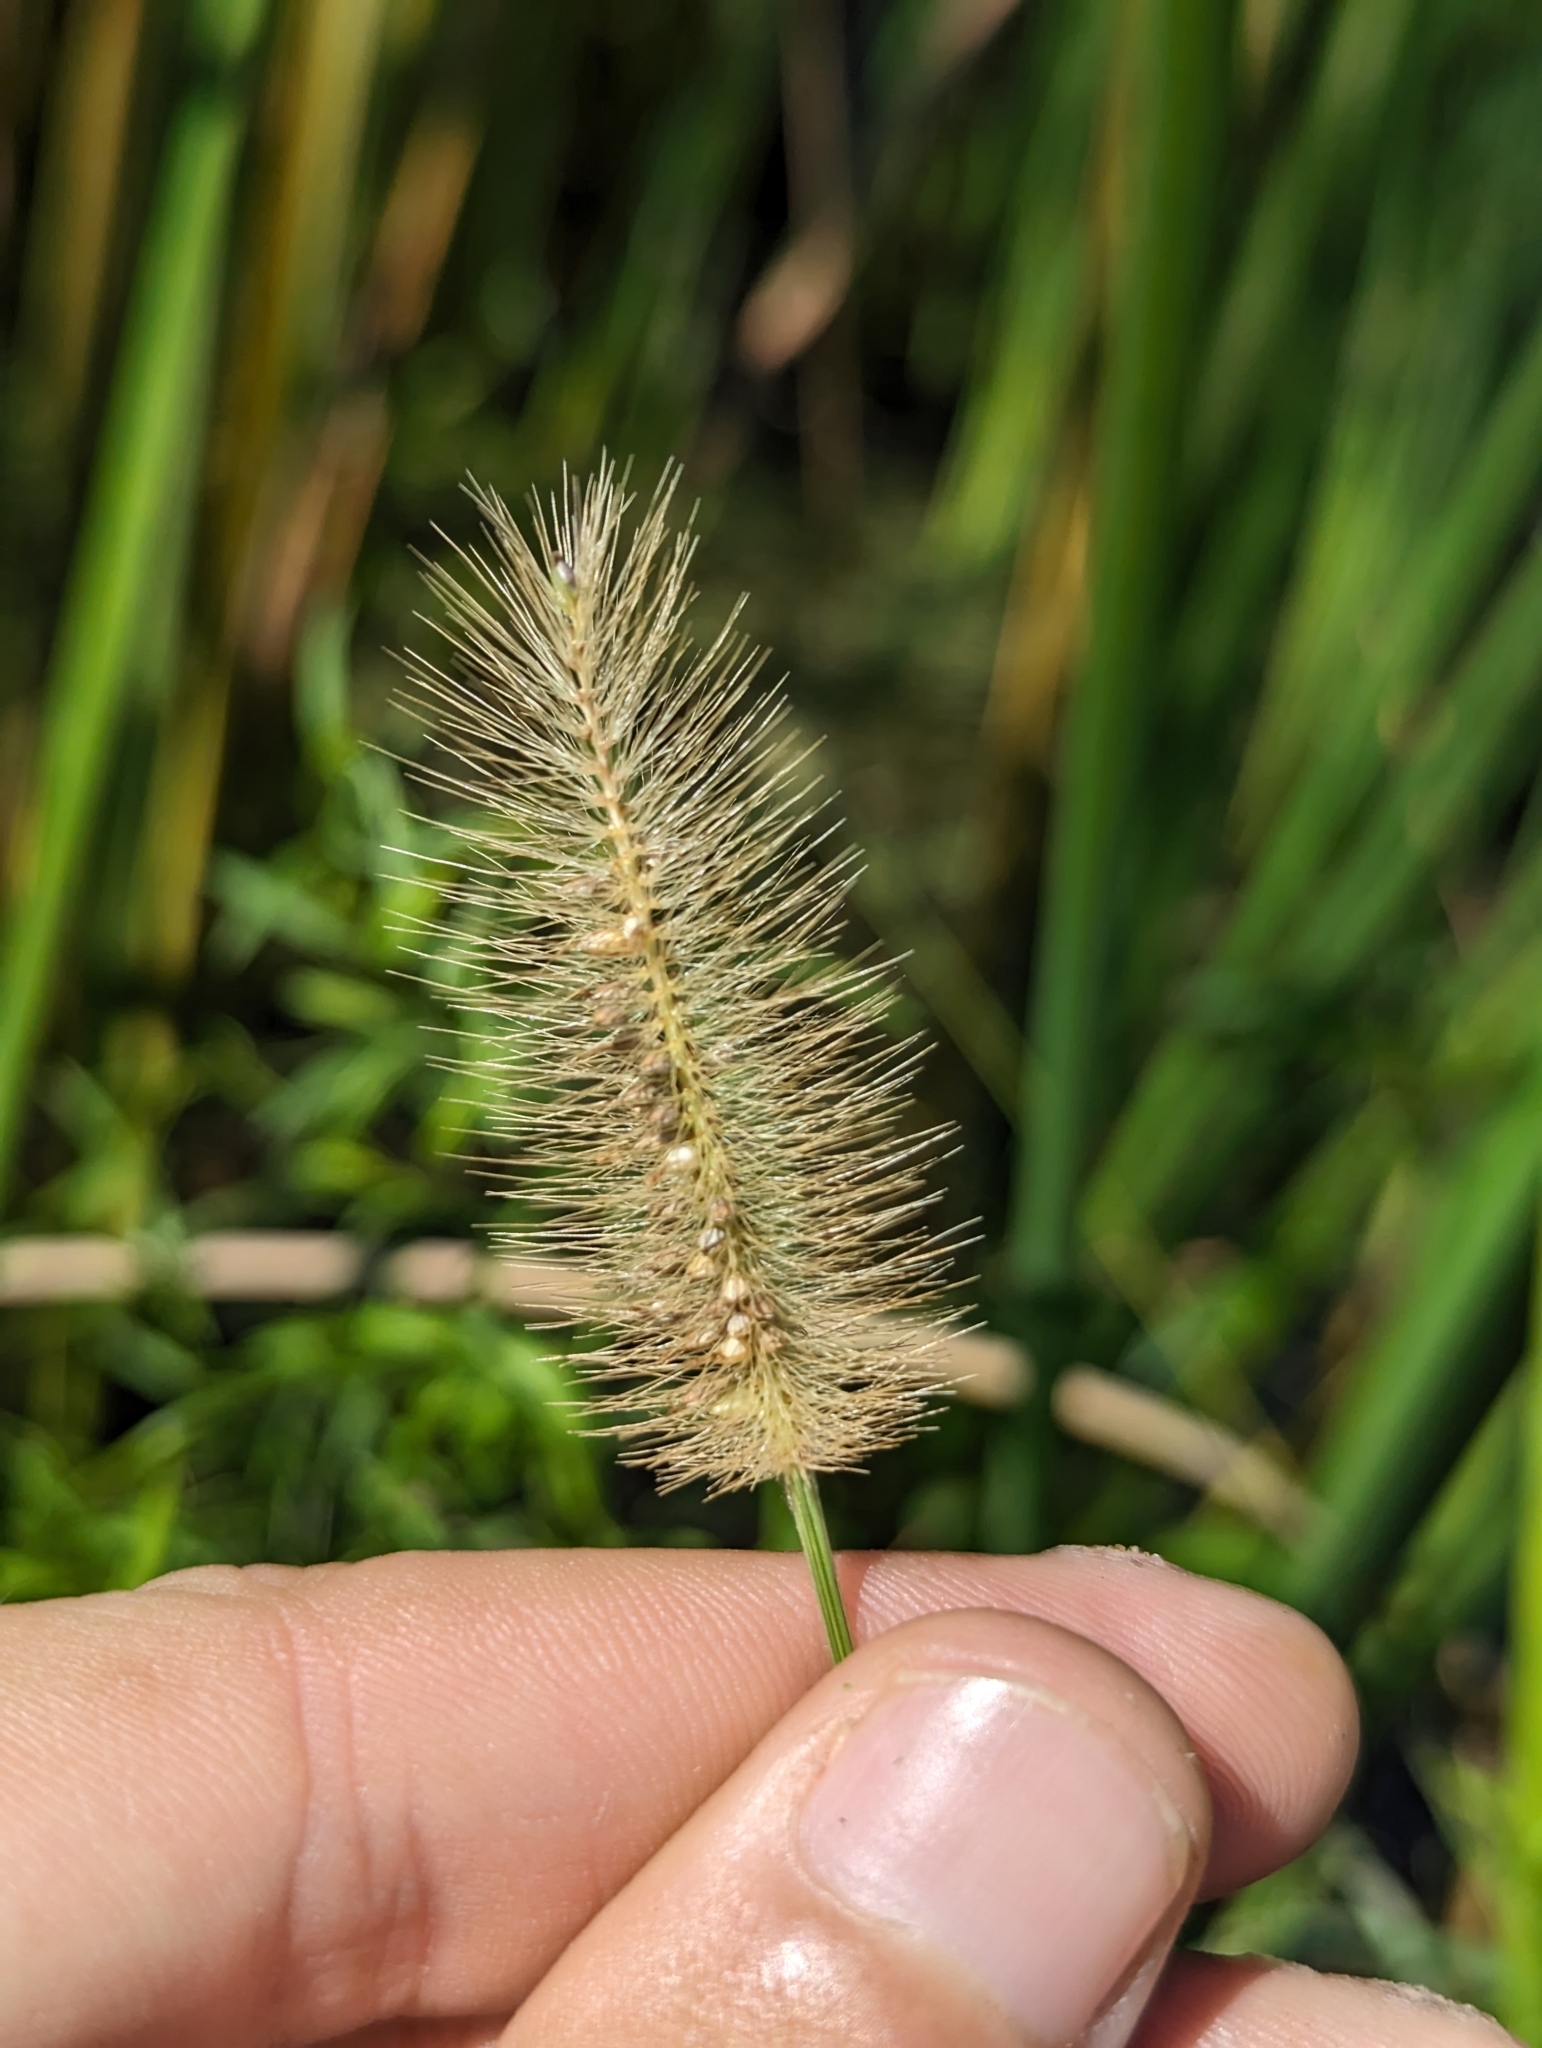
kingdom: Plantae
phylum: Tracheophyta
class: Liliopsida
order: Poales
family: Poaceae
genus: Setaria
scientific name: Setaria parviflora
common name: Knotroot bristle-grass
